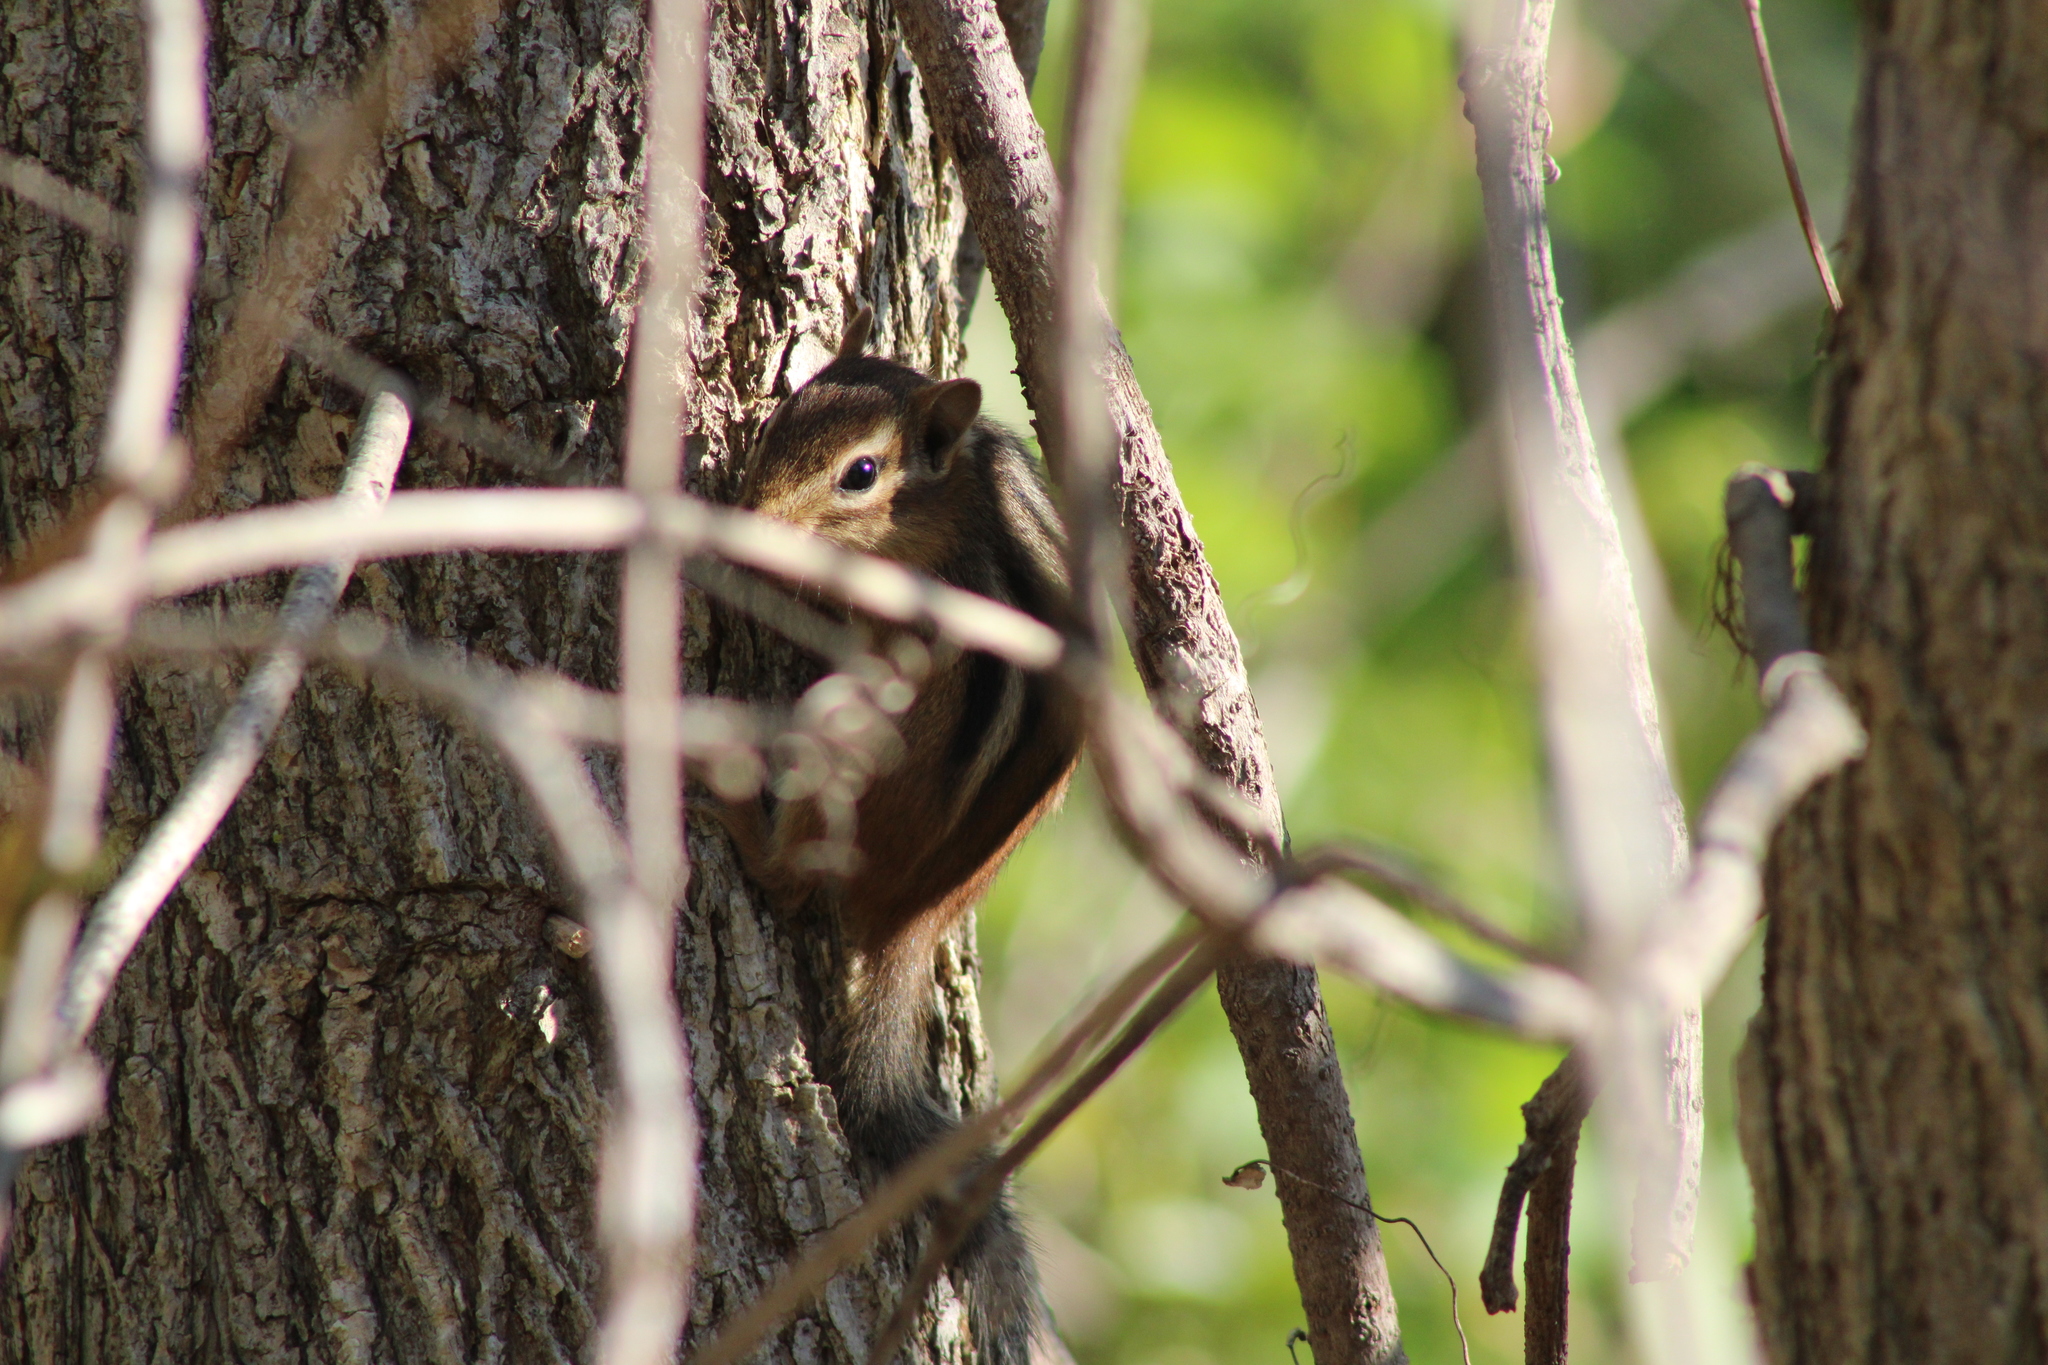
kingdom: Animalia
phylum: Chordata
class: Mammalia
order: Rodentia
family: Sciuridae
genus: Tamias
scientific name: Tamias striatus
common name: Eastern chipmunk
